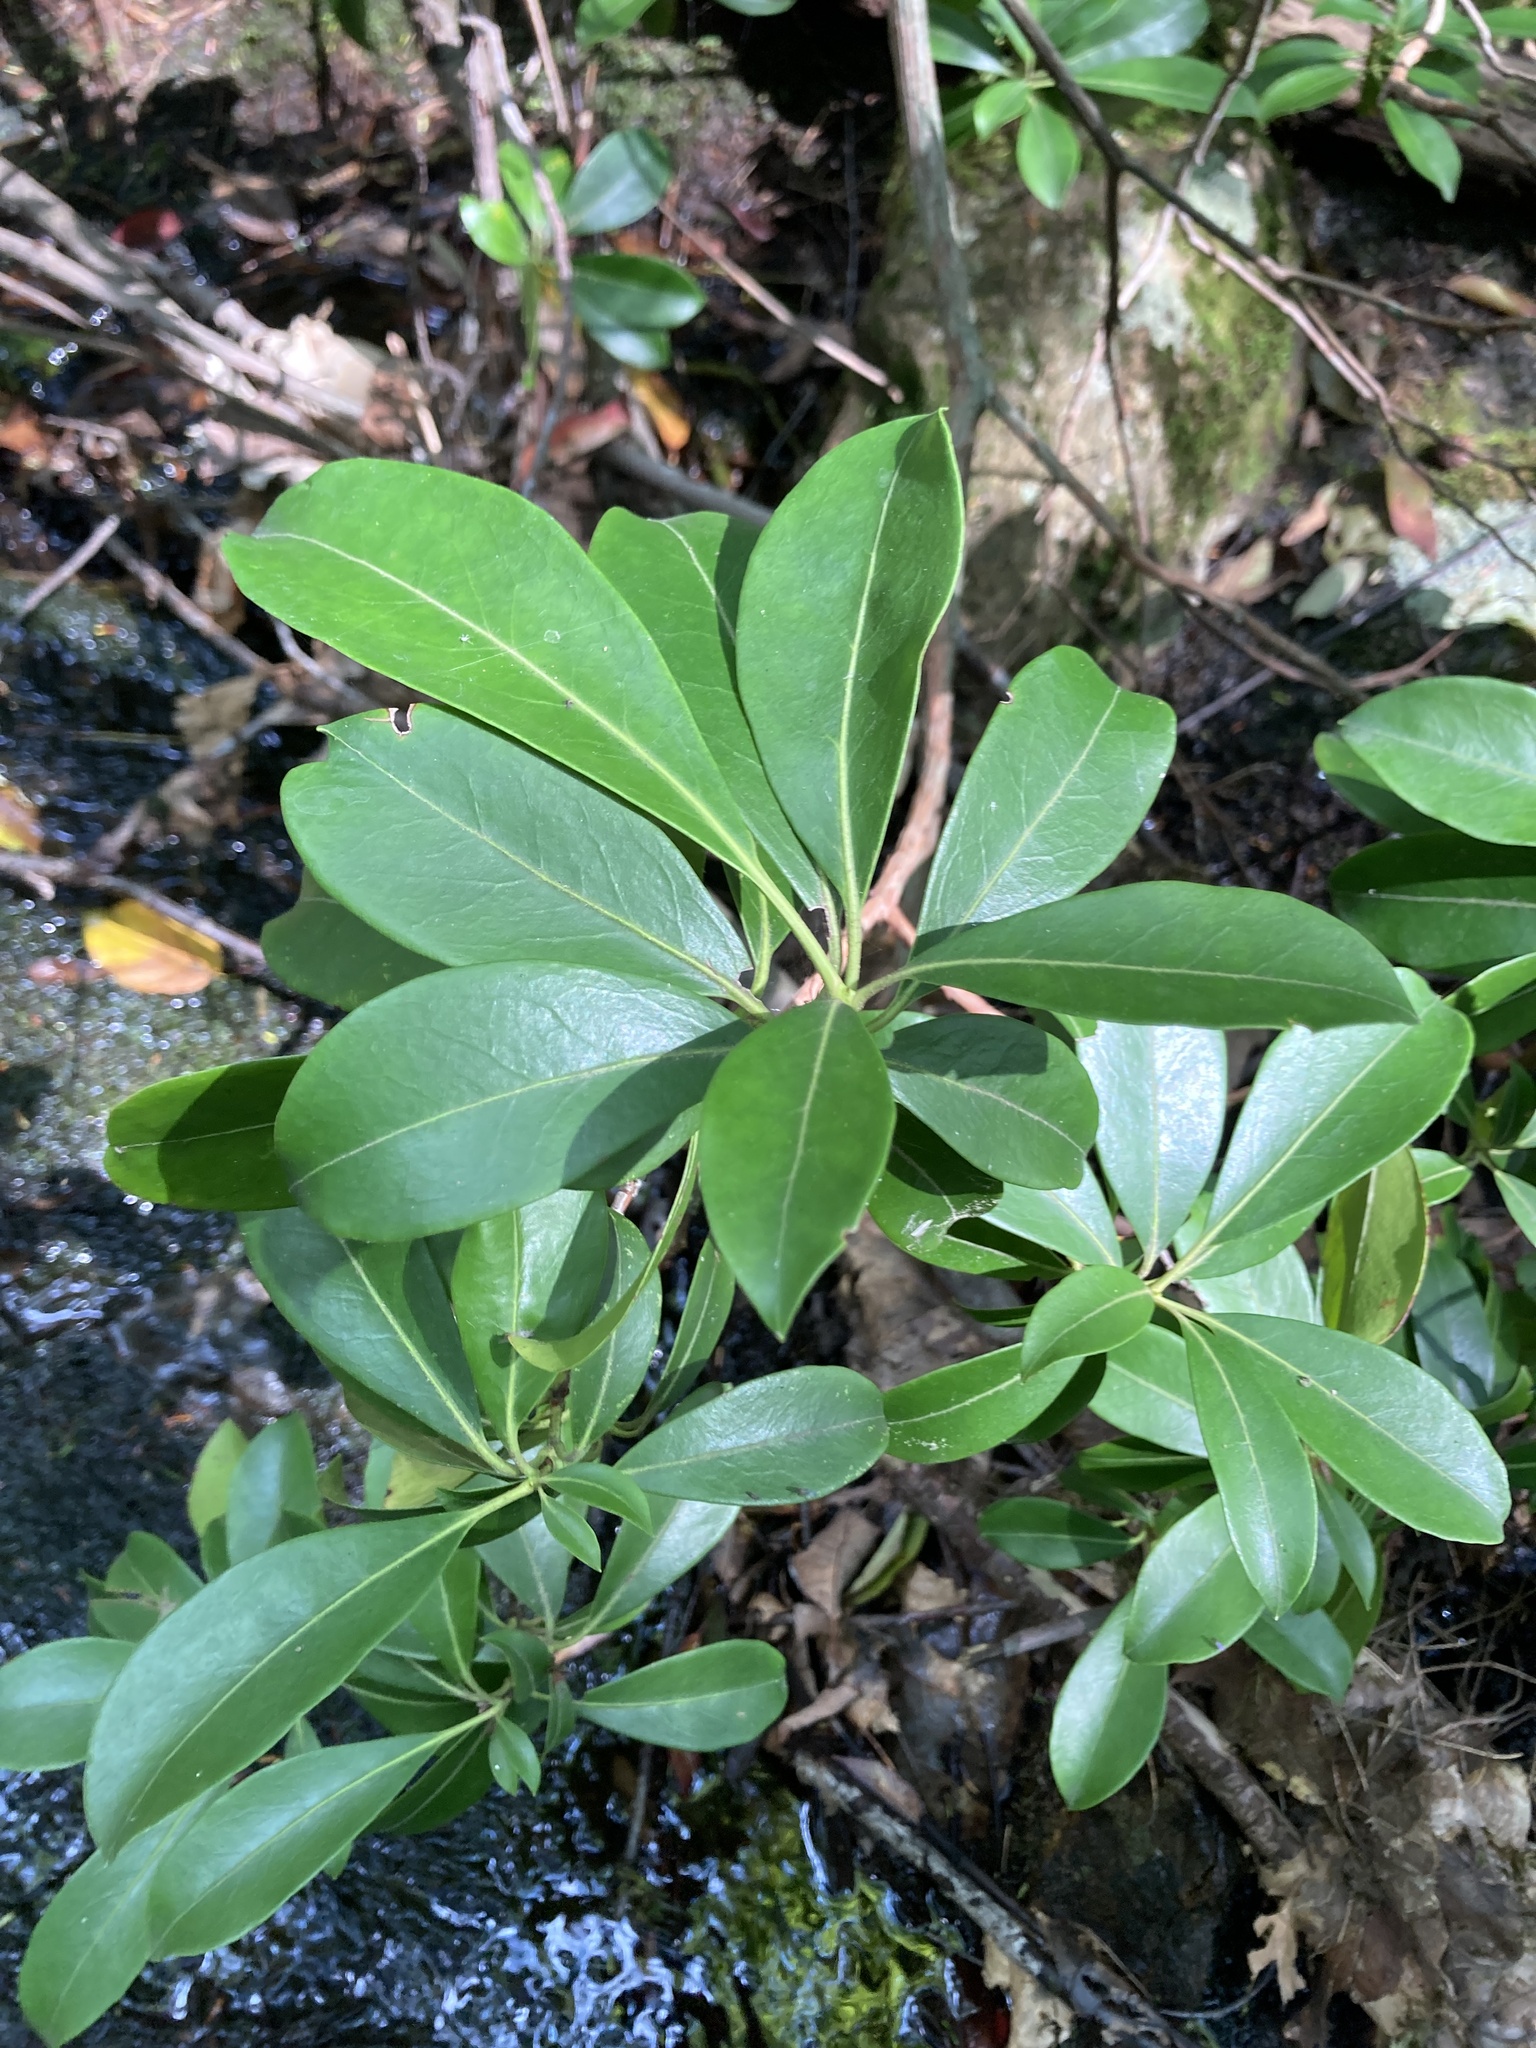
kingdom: Plantae
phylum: Tracheophyta
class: Magnoliopsida
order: Ericales
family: Ericaceae
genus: Kalmia
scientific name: Kalmia latifolia
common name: Mountain-laurel
